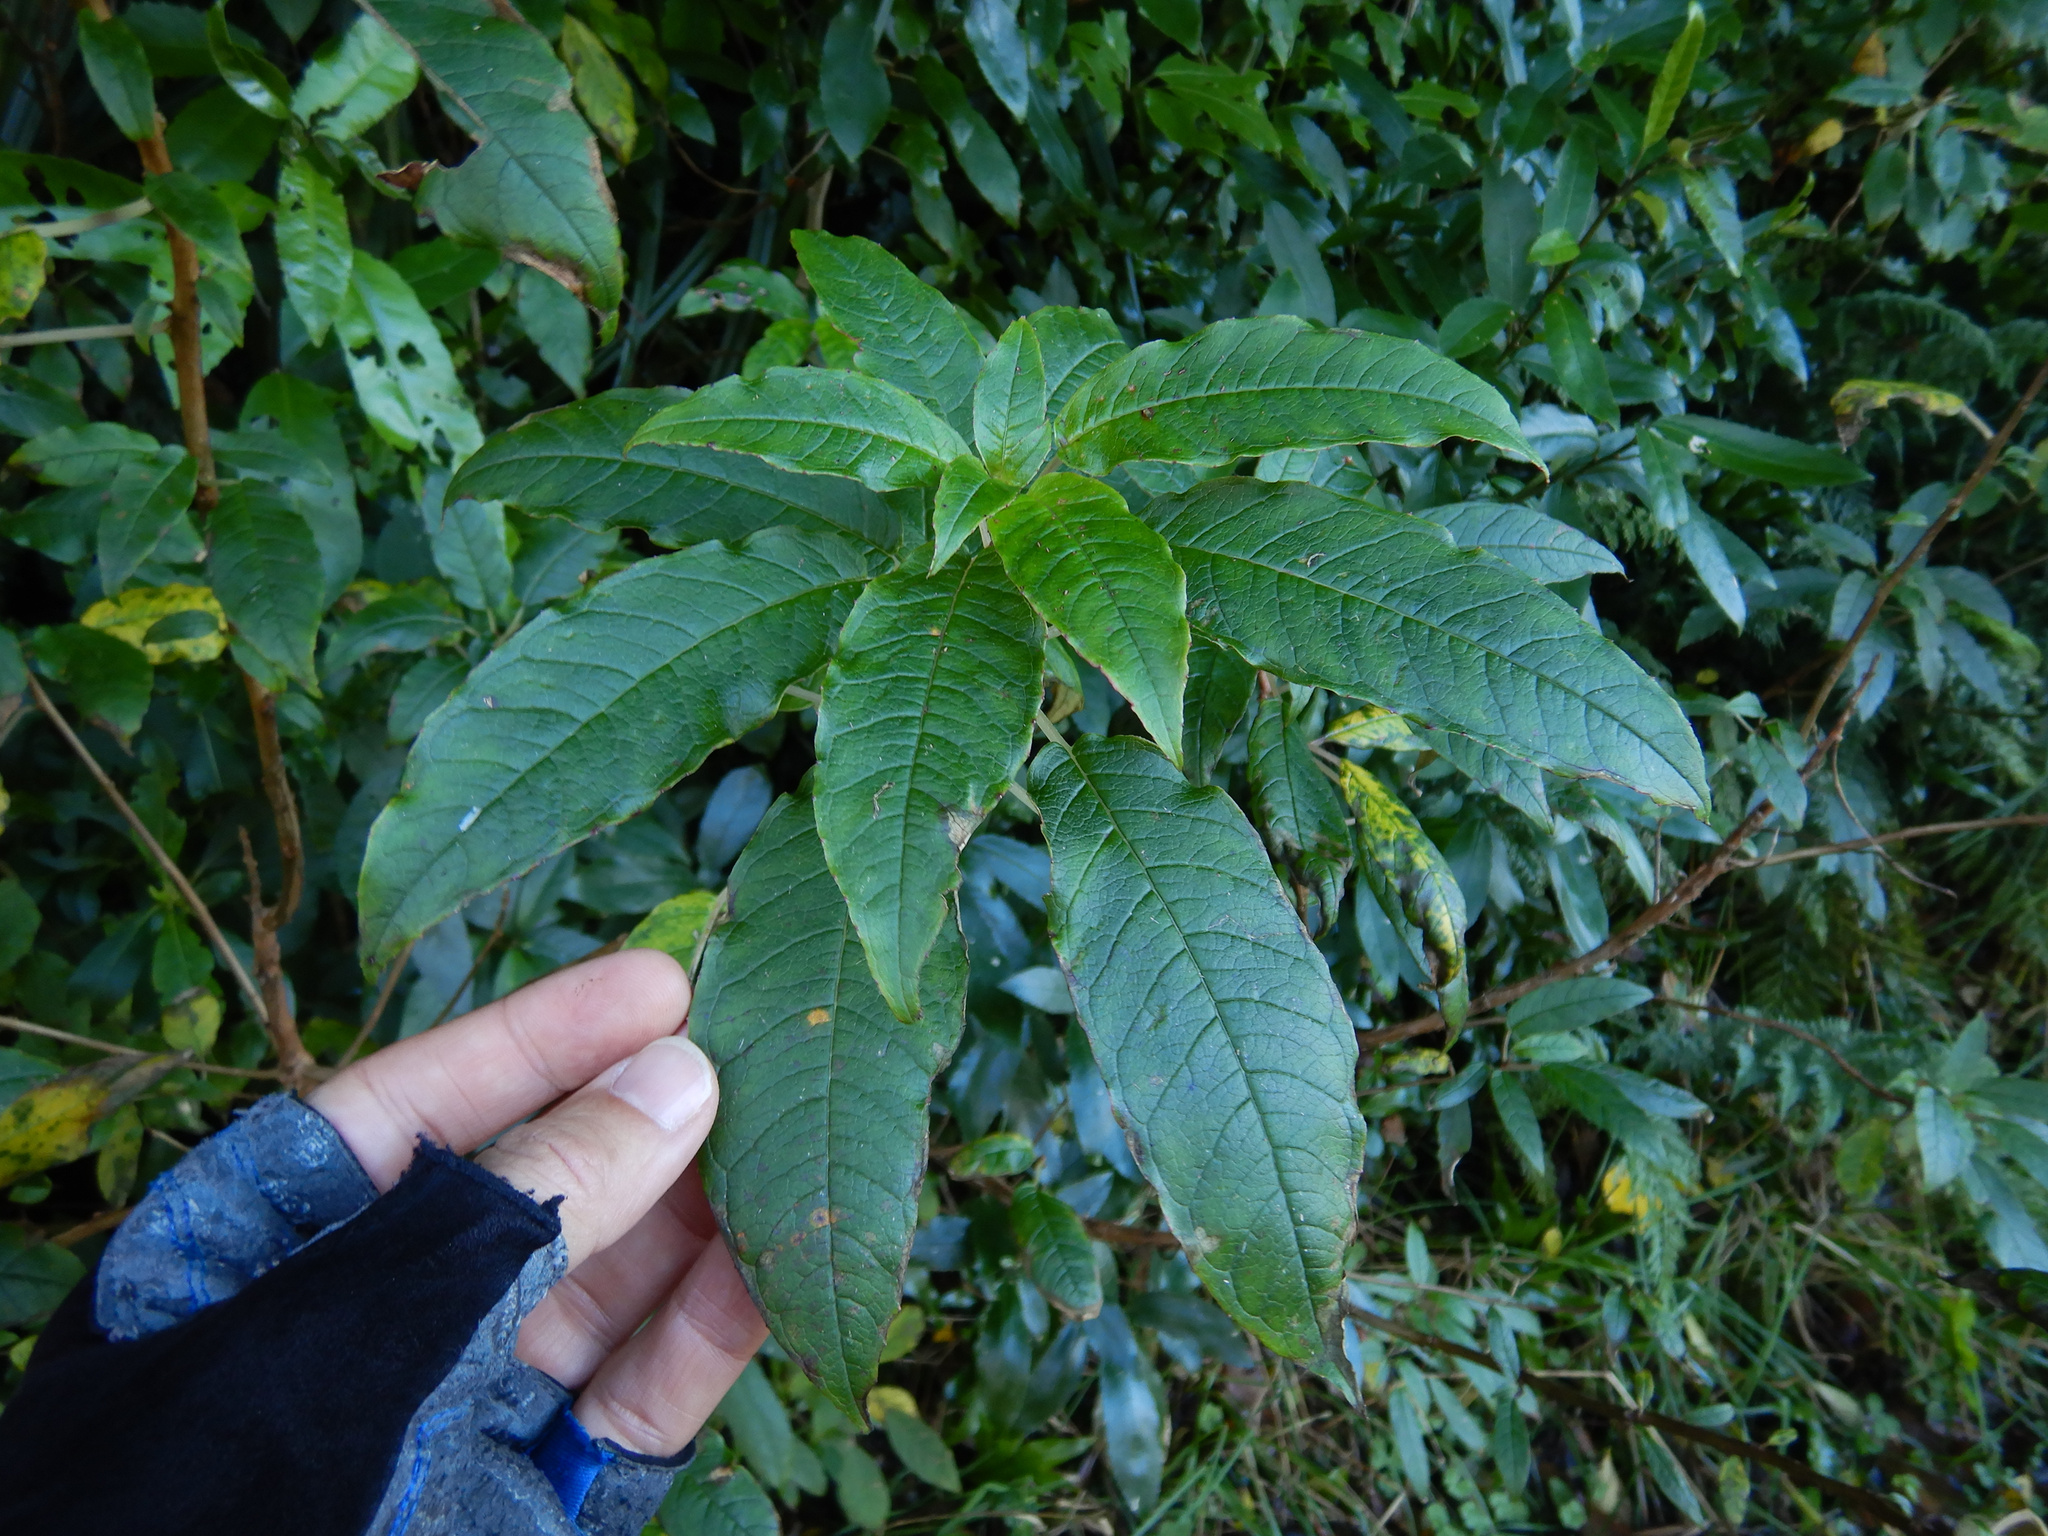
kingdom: Plantae
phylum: Tracheophyta
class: Magnoliopsida
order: Myrtales
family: Onagraceae
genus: Fuchsia
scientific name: Fuchsia excorticata
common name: Tree fuchsia
